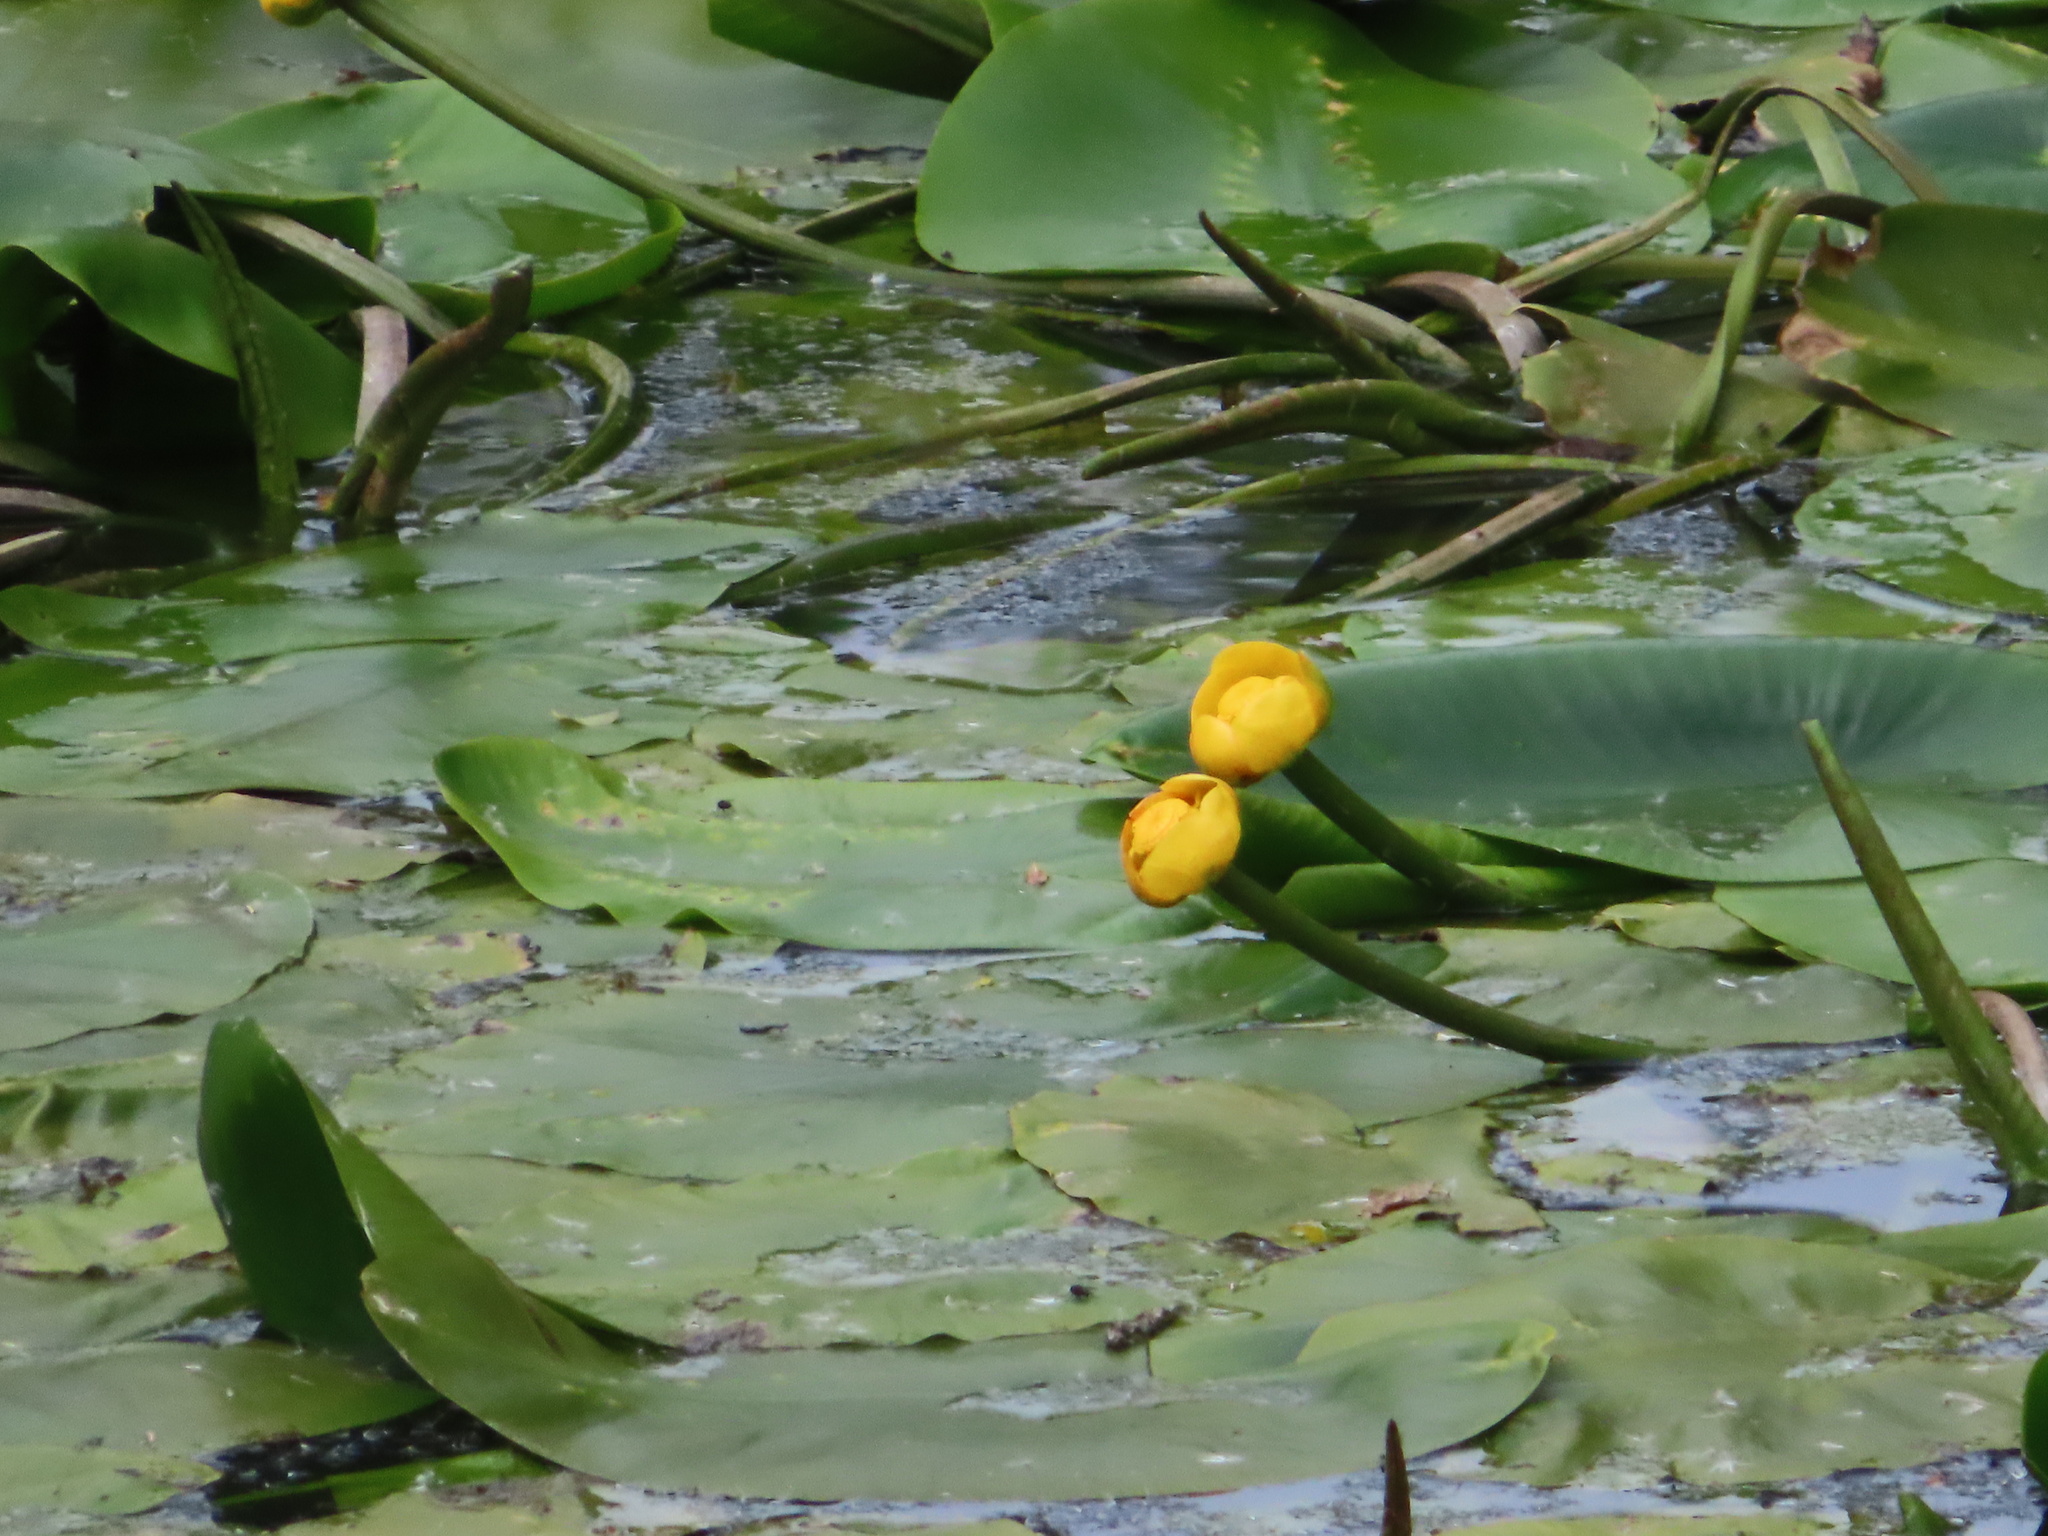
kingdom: Plantae
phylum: Tracheophyta
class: Magnoliopsida
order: Nymphaeales
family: Nymphaeaceae
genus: Nuphar
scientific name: Nuphar lutea
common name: Yellow water-lily
